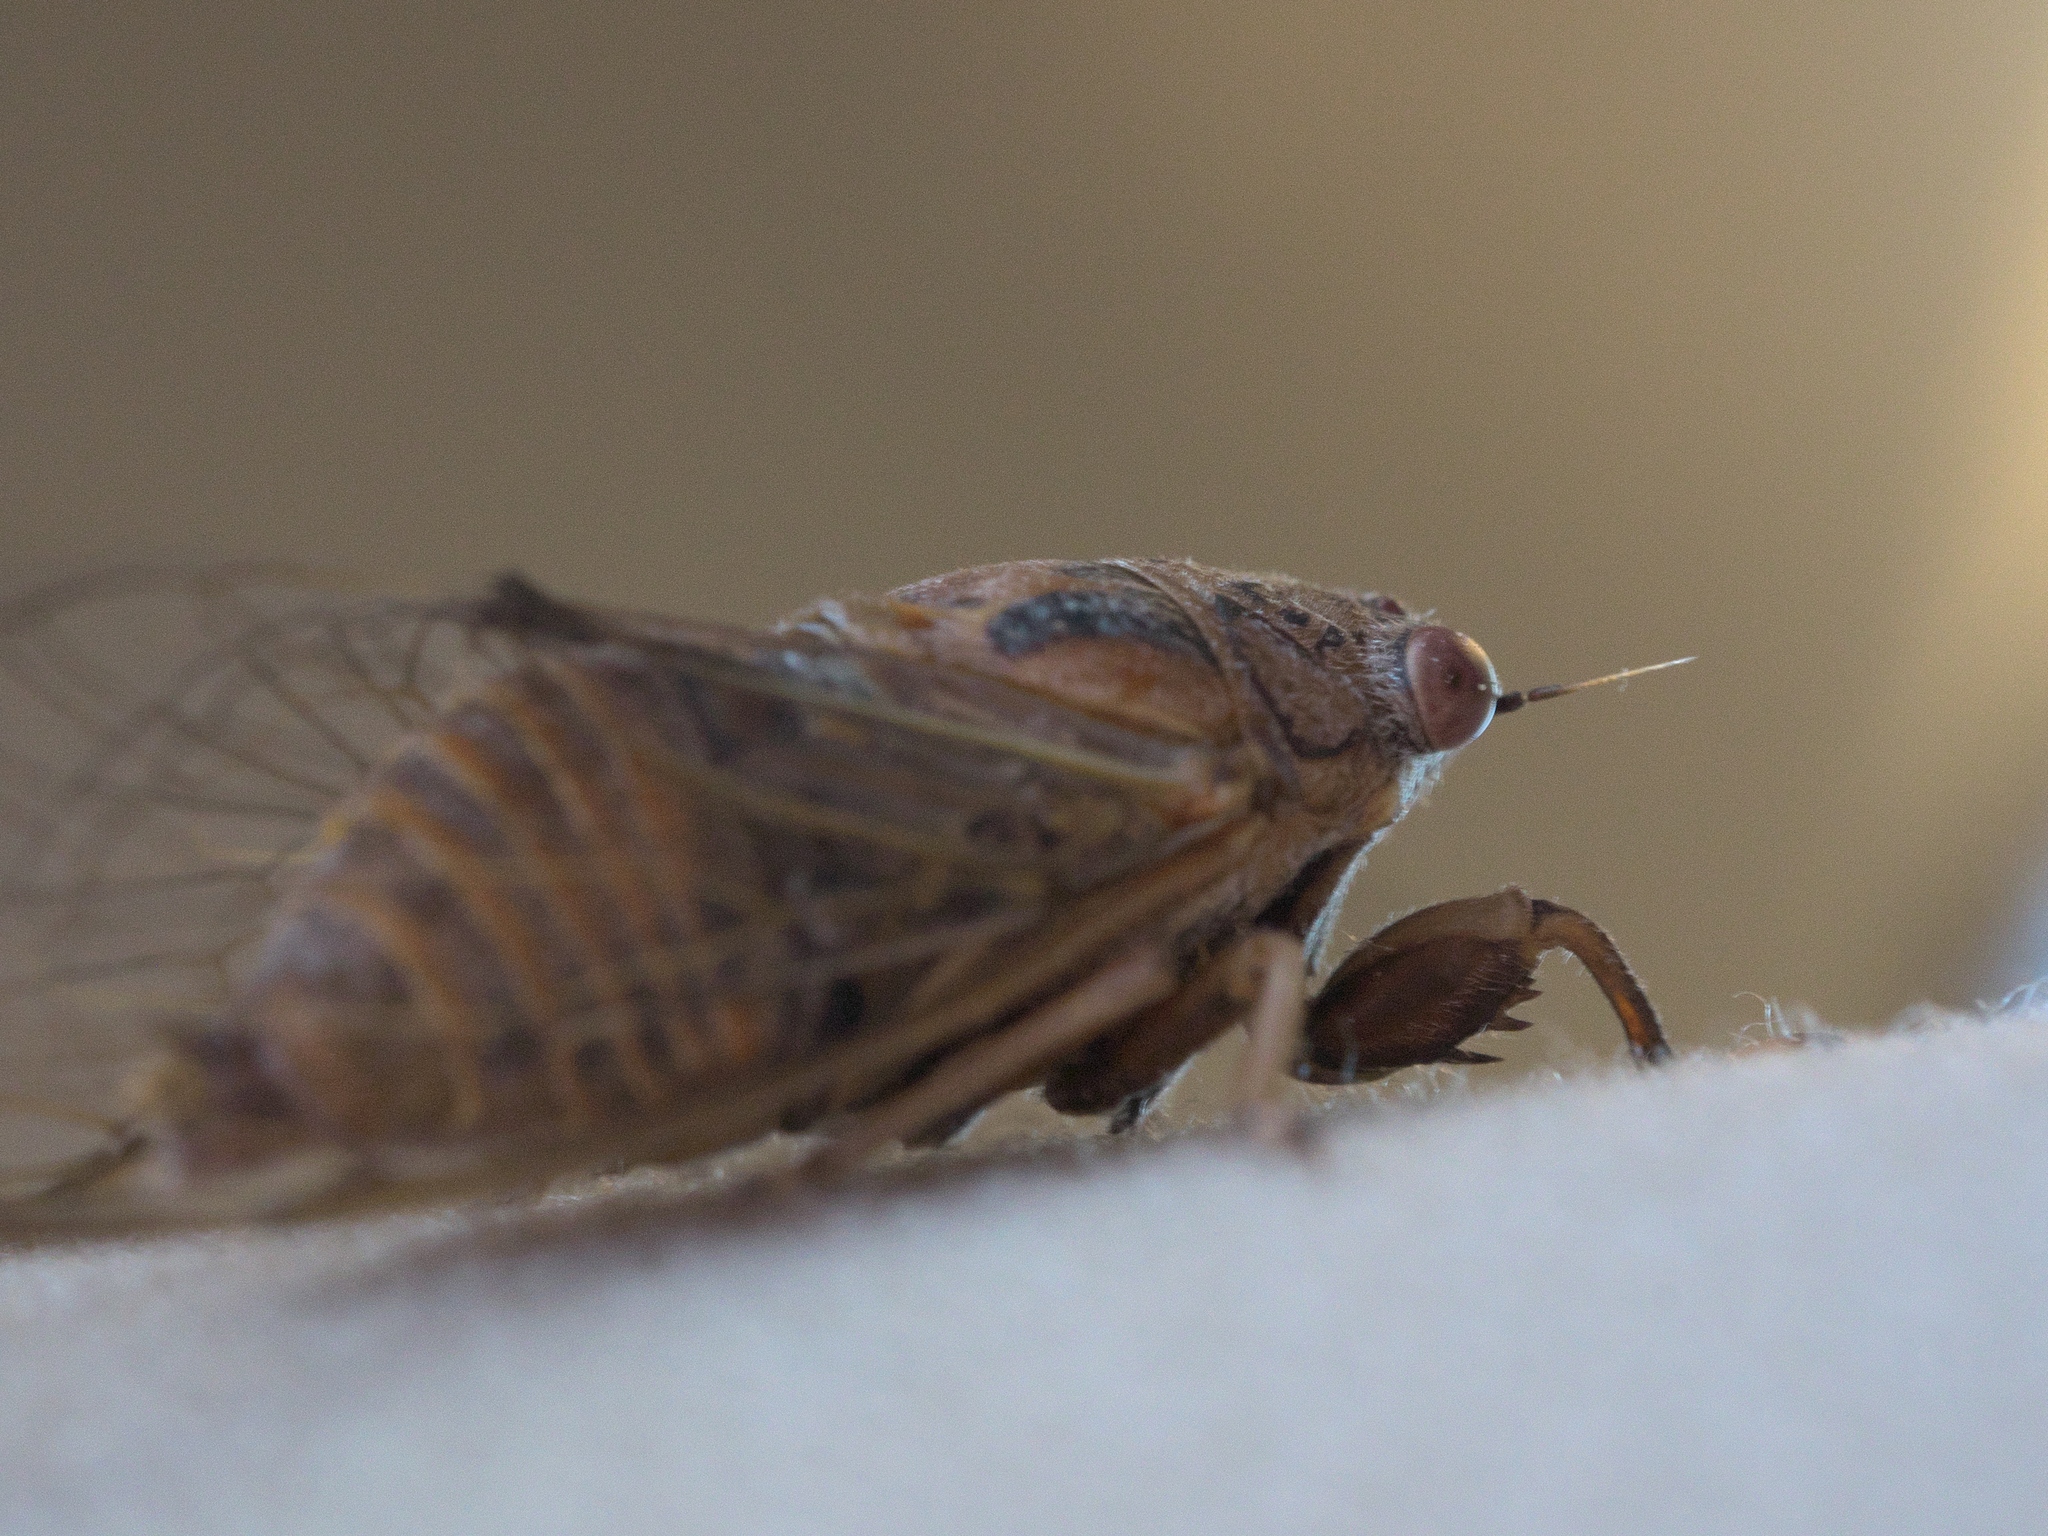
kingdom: Animalia
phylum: Arthropoda
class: Insecta
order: Hemiptera
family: Cicadidae
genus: Cicadettana
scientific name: Cicadettana calliope
